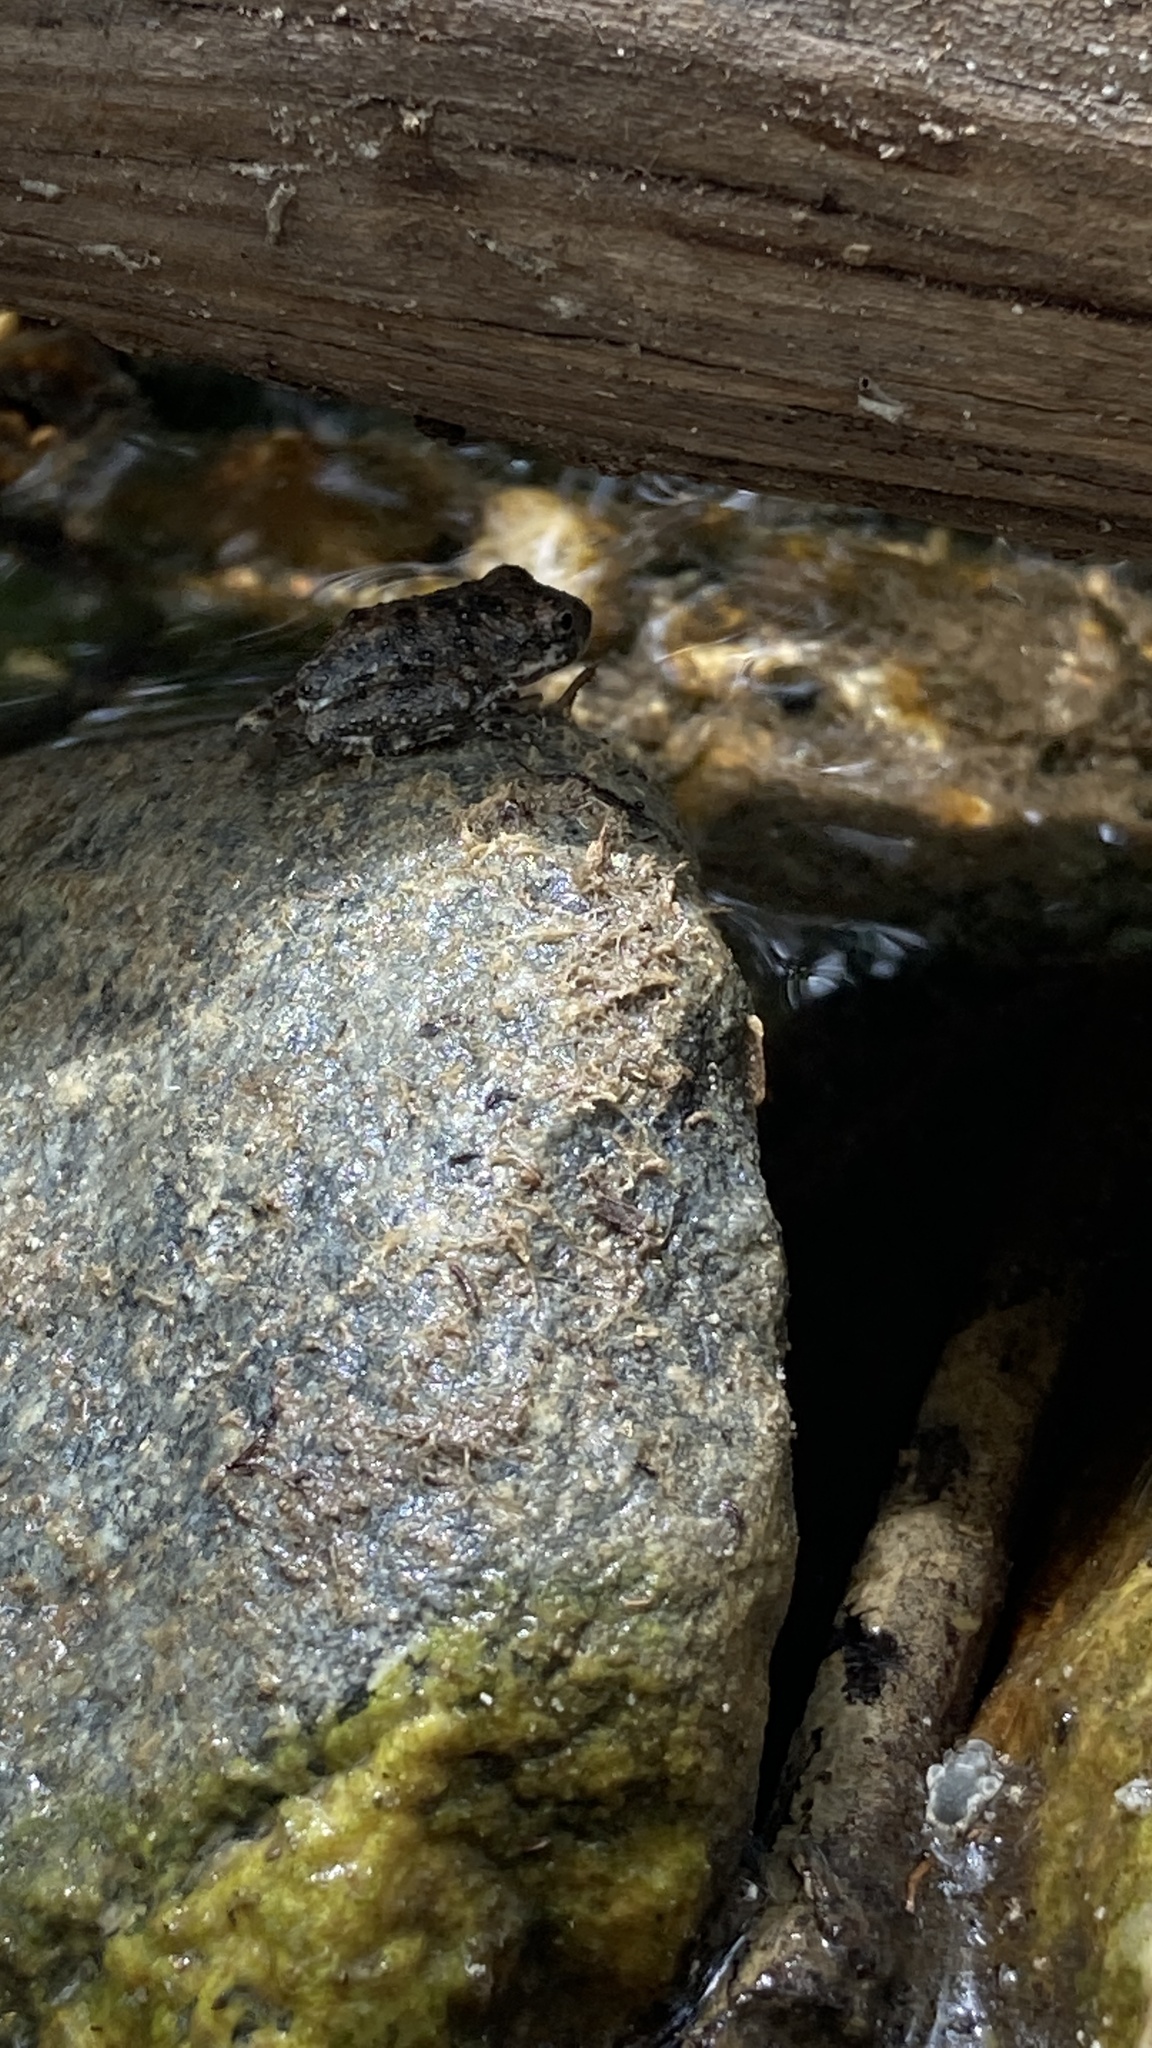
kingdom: Animalia
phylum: Chordata
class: Amphibia
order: Anura
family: Hylidae
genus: Pseudacris
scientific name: Pseudacris cadaverina
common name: California chorus frog
